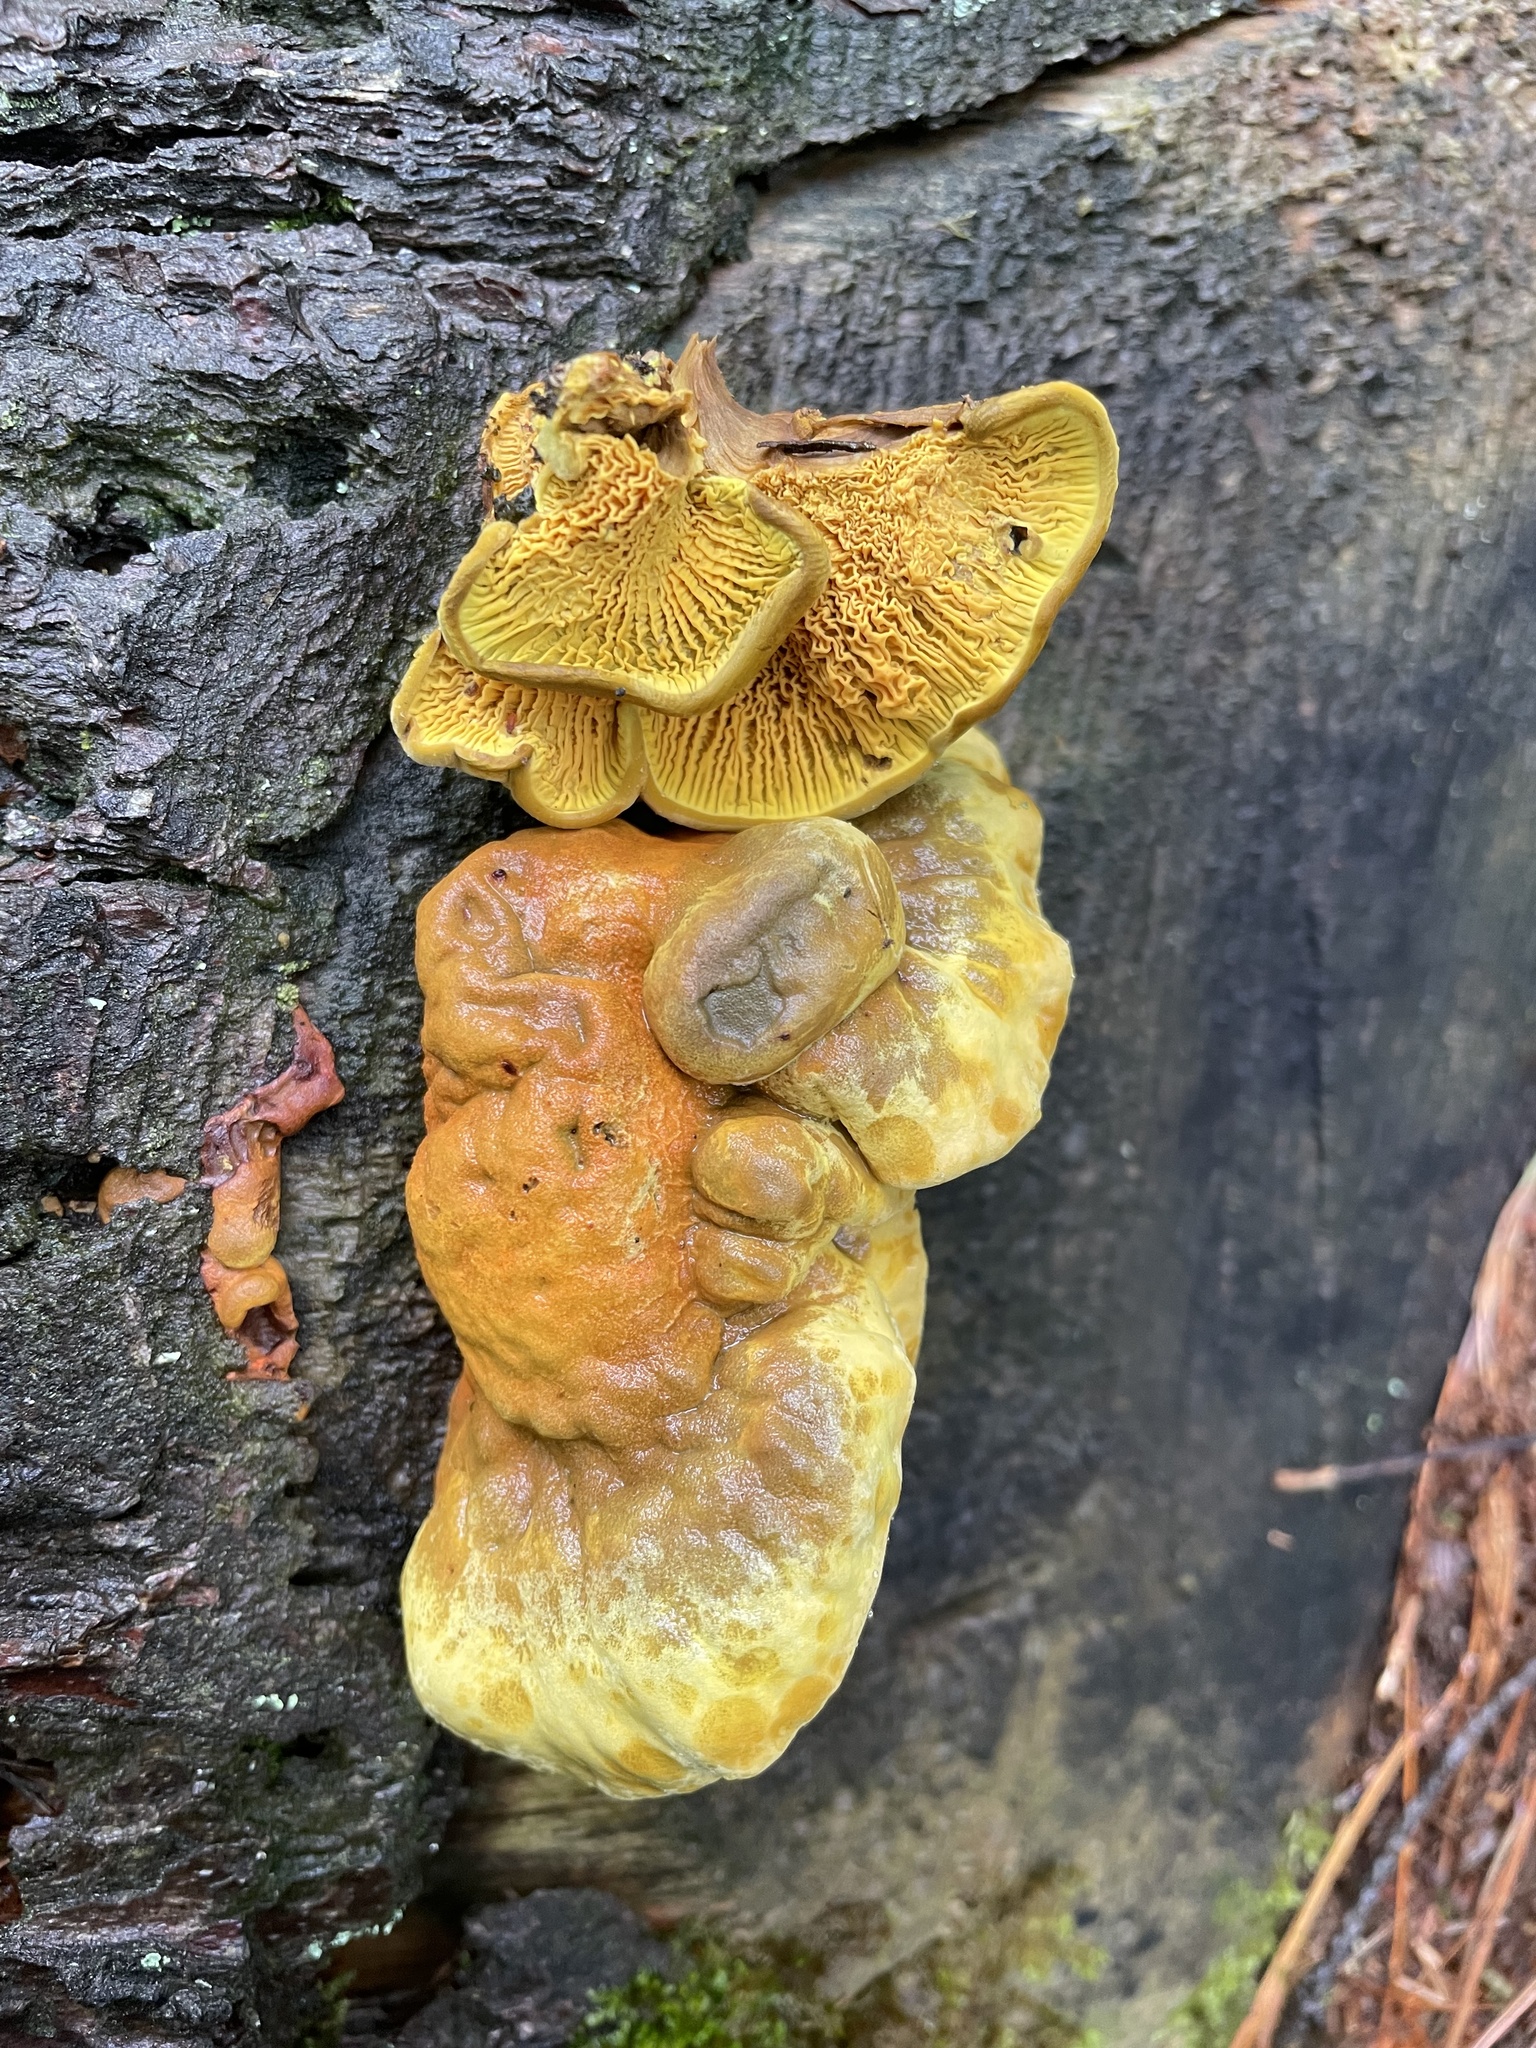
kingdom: Fungi
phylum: Basidiomycota
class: Agaricomycetes
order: Boletales
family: Paxillaceae
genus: Meiorganum
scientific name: Meiorganum curtisii
